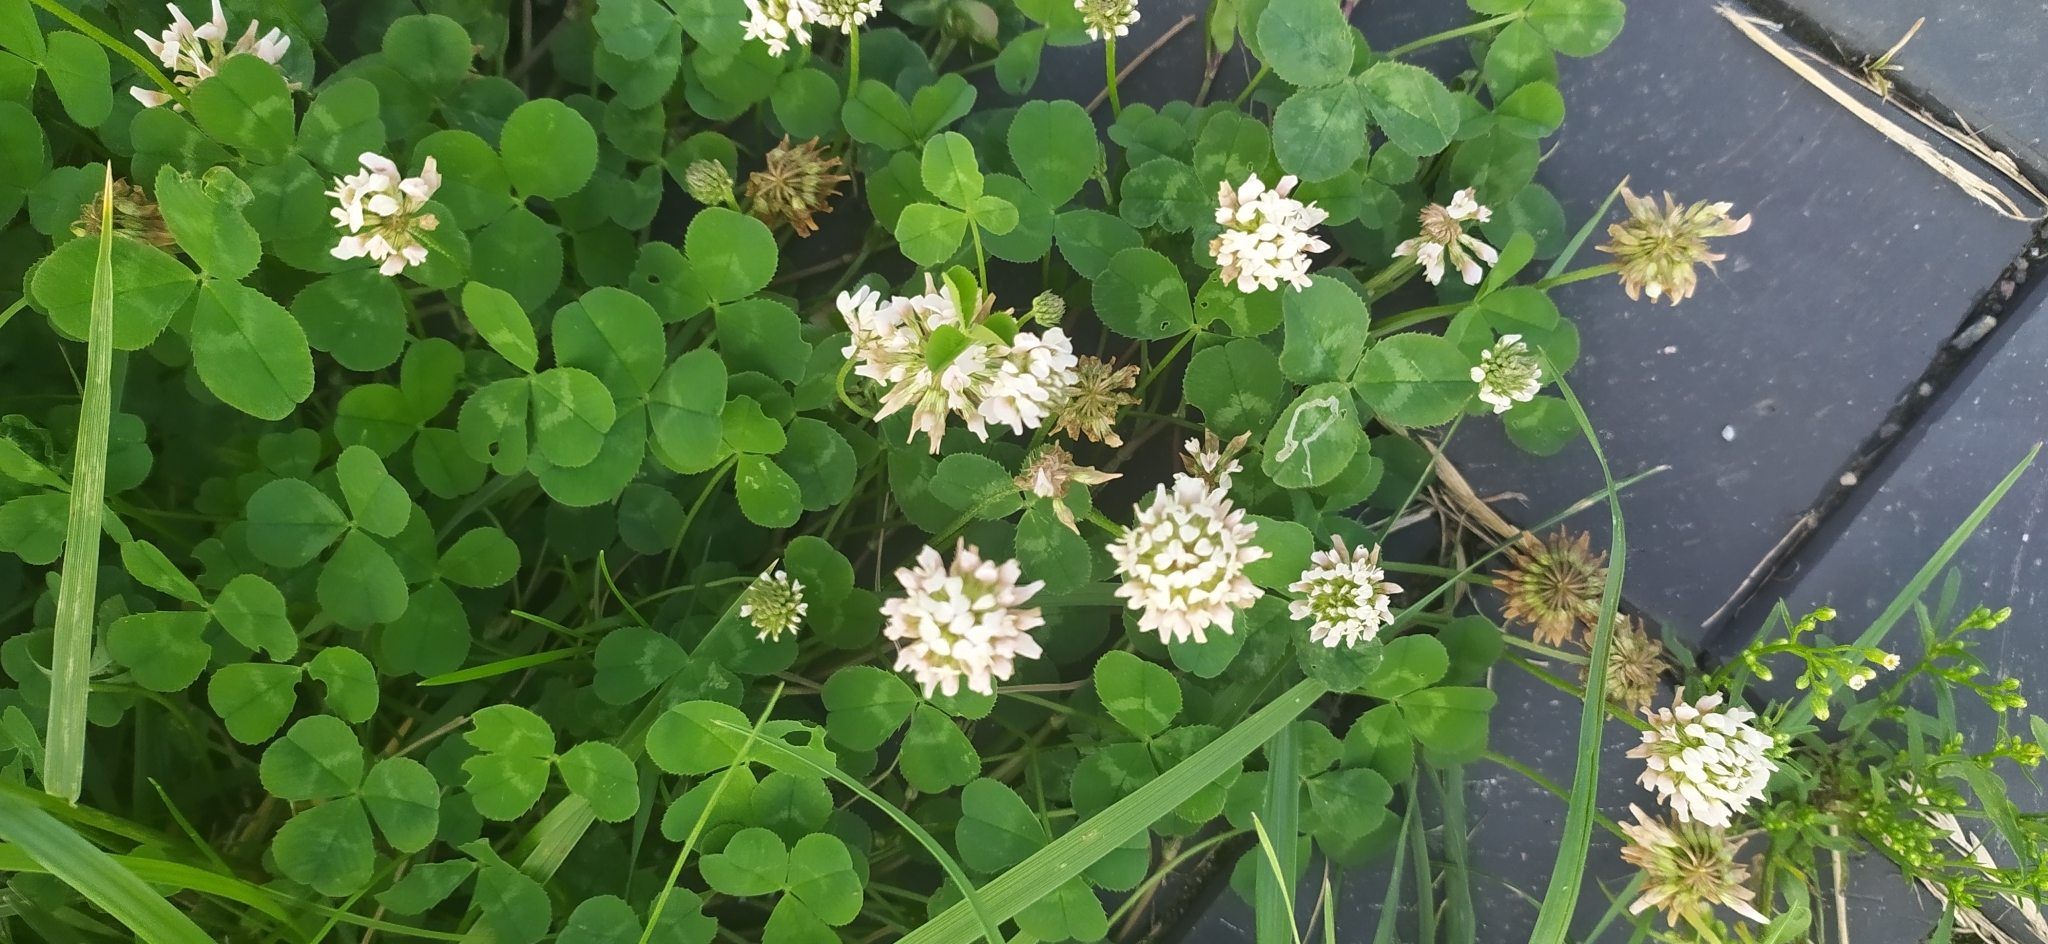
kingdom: Plantae
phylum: Tracheophyta
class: Magnoliopsida
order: Fabales
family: Fabaceae
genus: Trifolium
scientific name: Trifolium repens
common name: White clover
